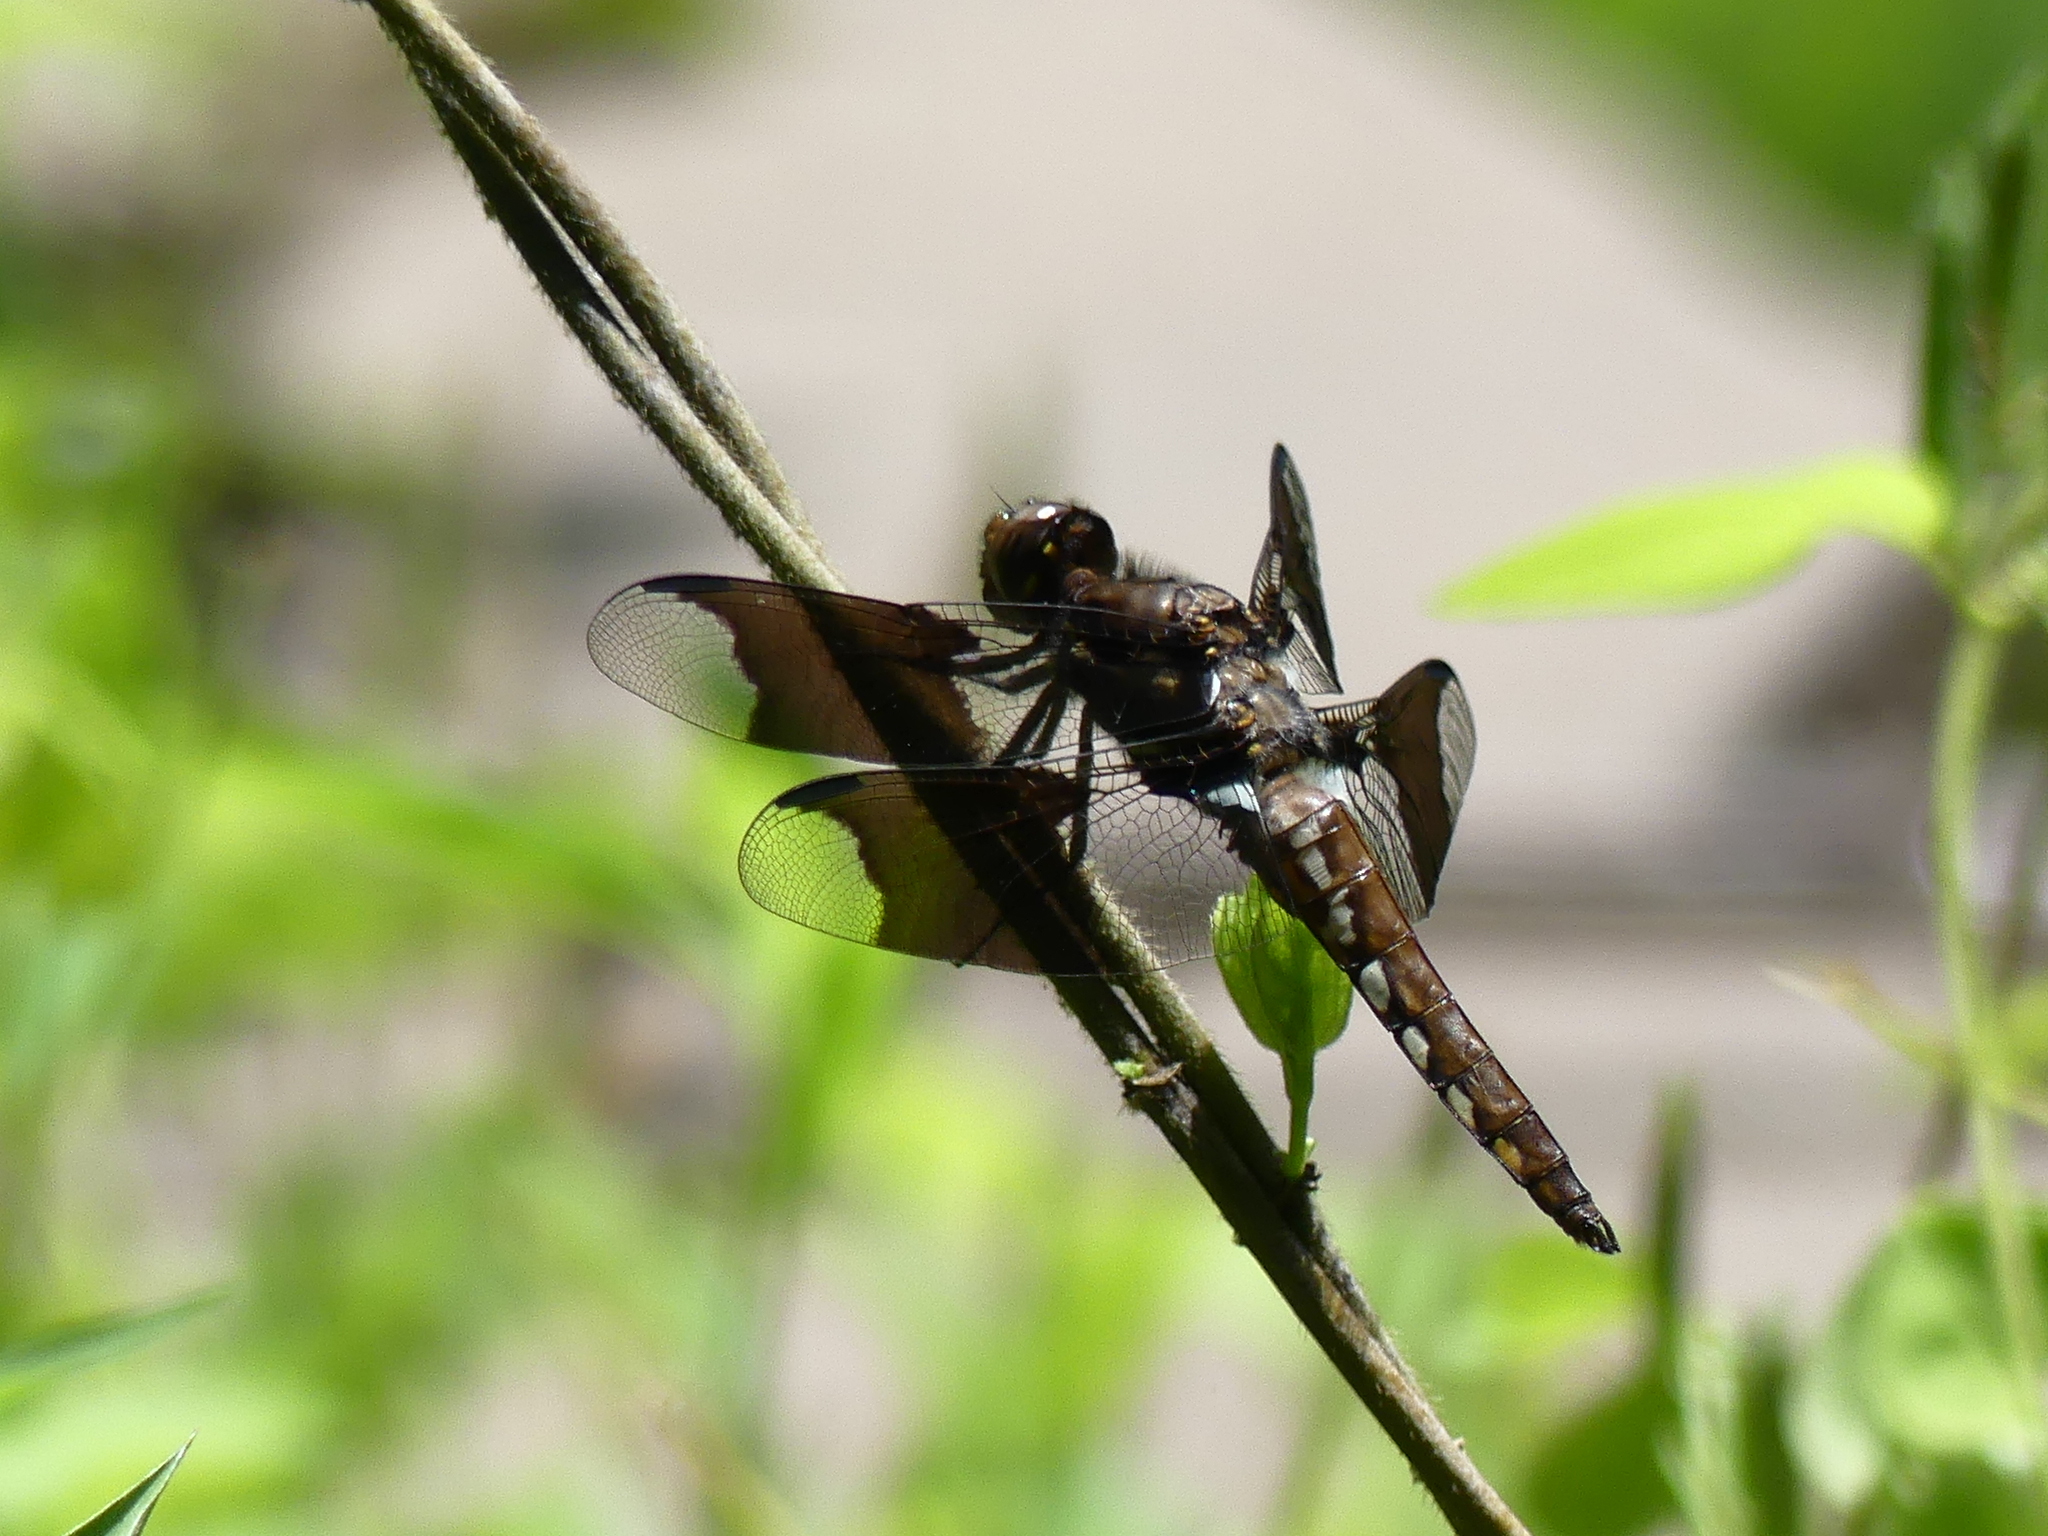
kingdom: Animalia
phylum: Arthropoda
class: Insecta
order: Odonata
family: Libellulidae
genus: Plathemis
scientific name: Plathemis lydia
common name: Common whitetail
